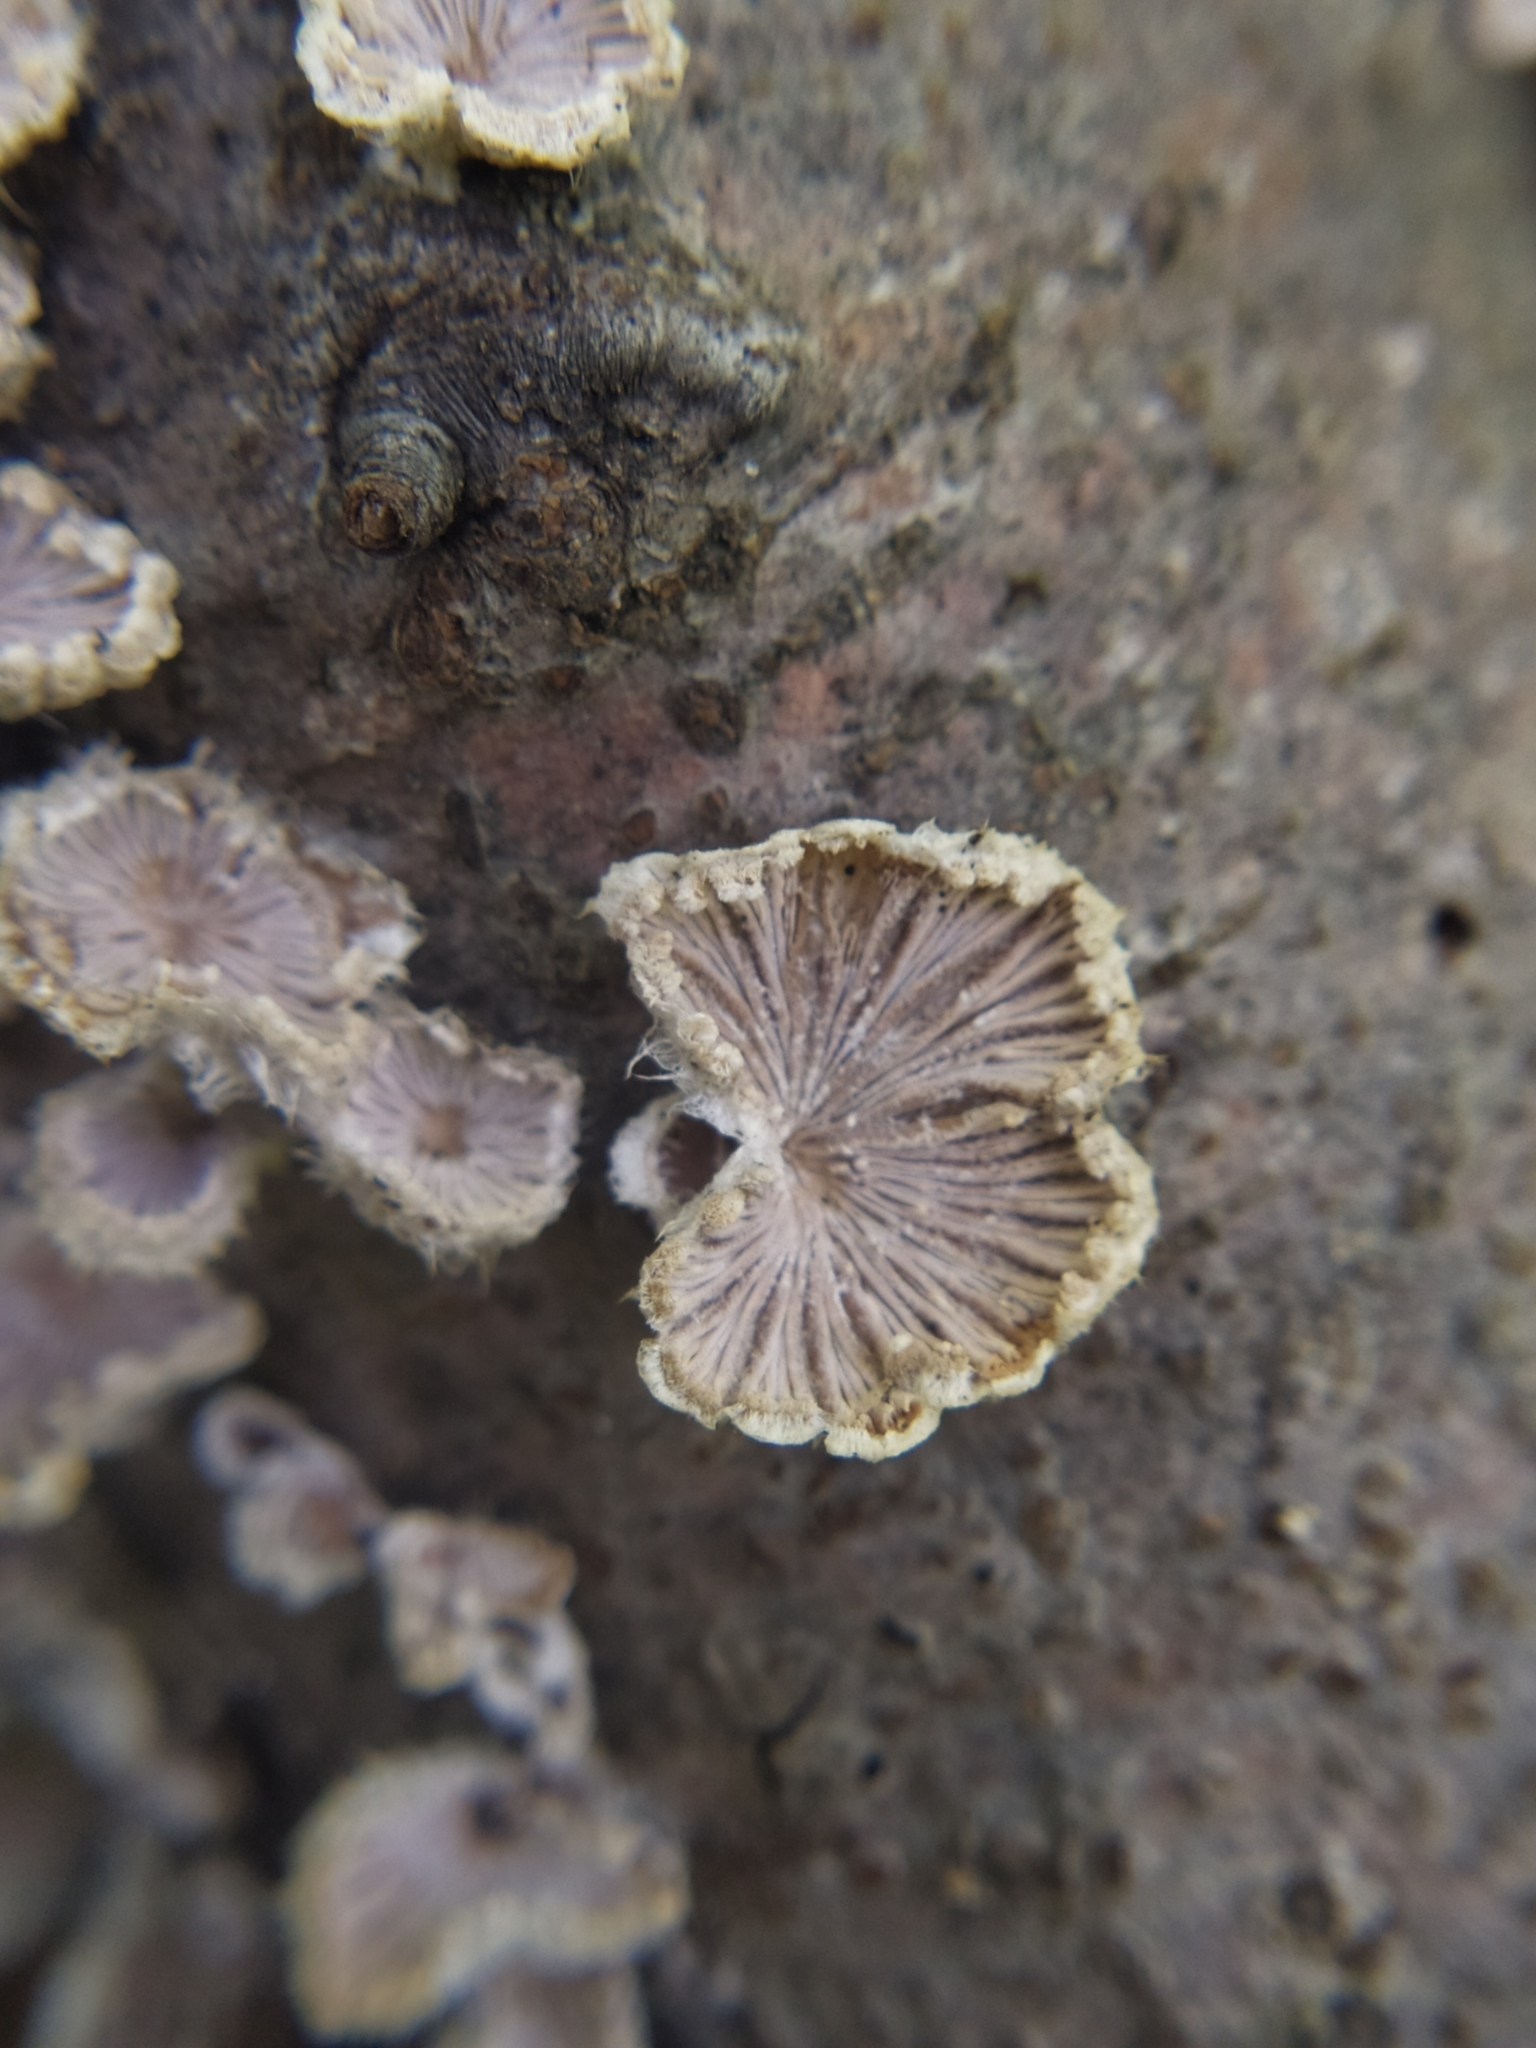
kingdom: Fungi
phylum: Basidiomycota
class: Agaricomycetes
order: Agaricales
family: Schizophyllaceae
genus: Schizophyllum
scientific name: Schizophyllum commune
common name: Common porecrust
